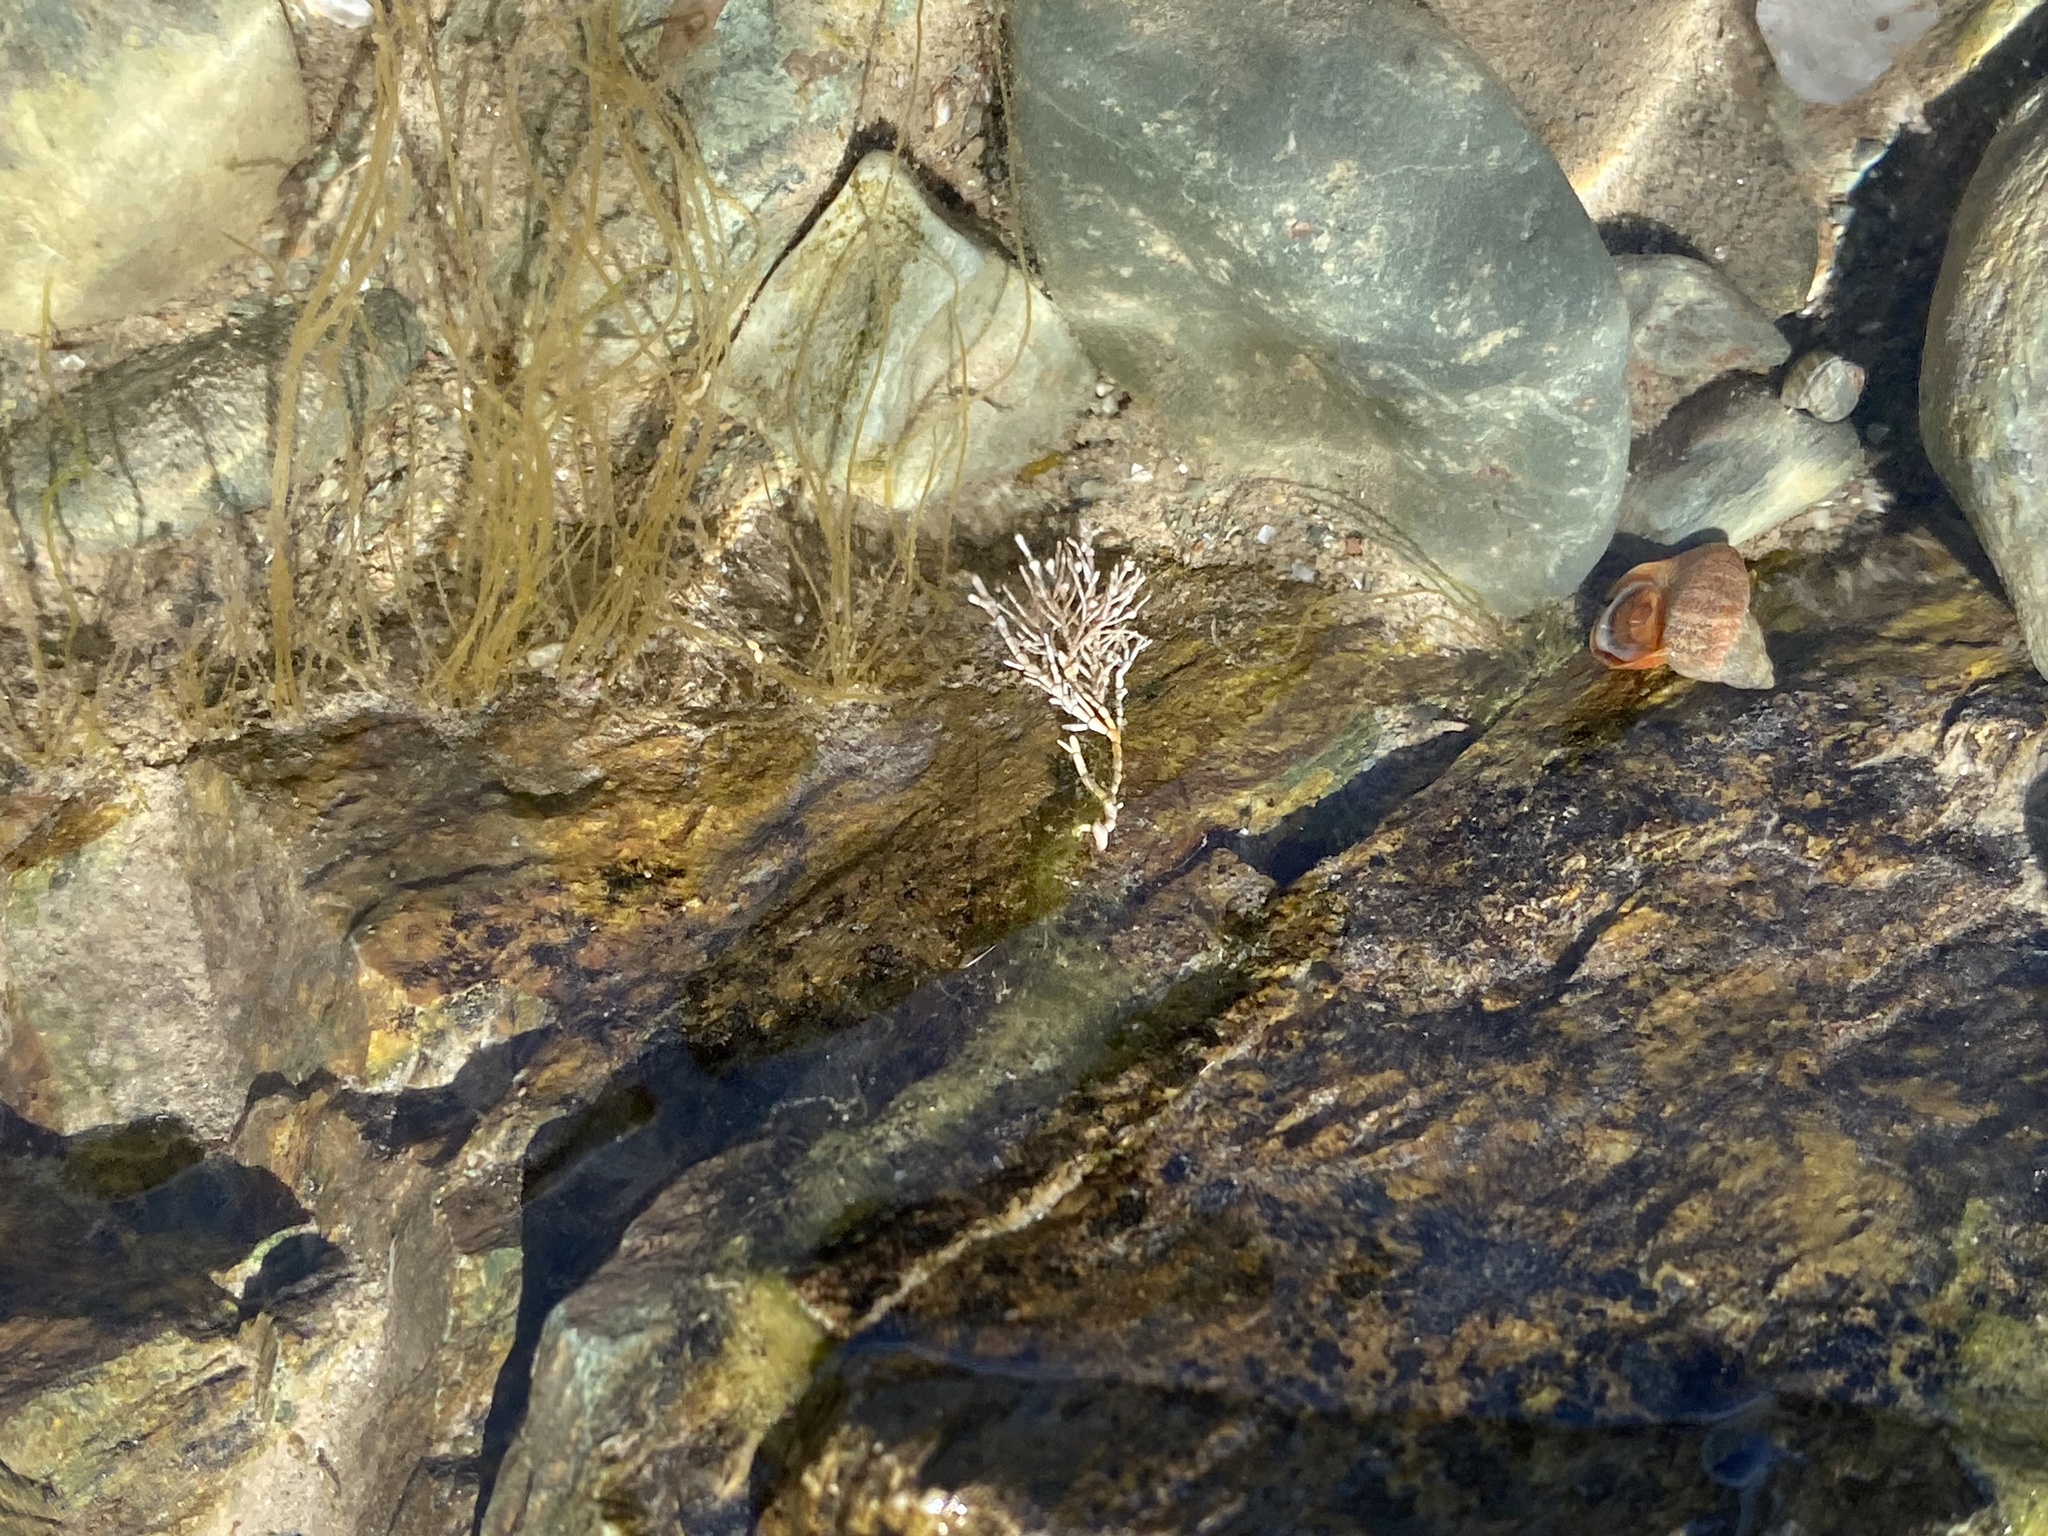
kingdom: Plantae
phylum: Rhodophyta
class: Florideophyceae
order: Corallinales
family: Corallinaceae
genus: Corallina
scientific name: Corallina officinalis
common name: Coral weed
